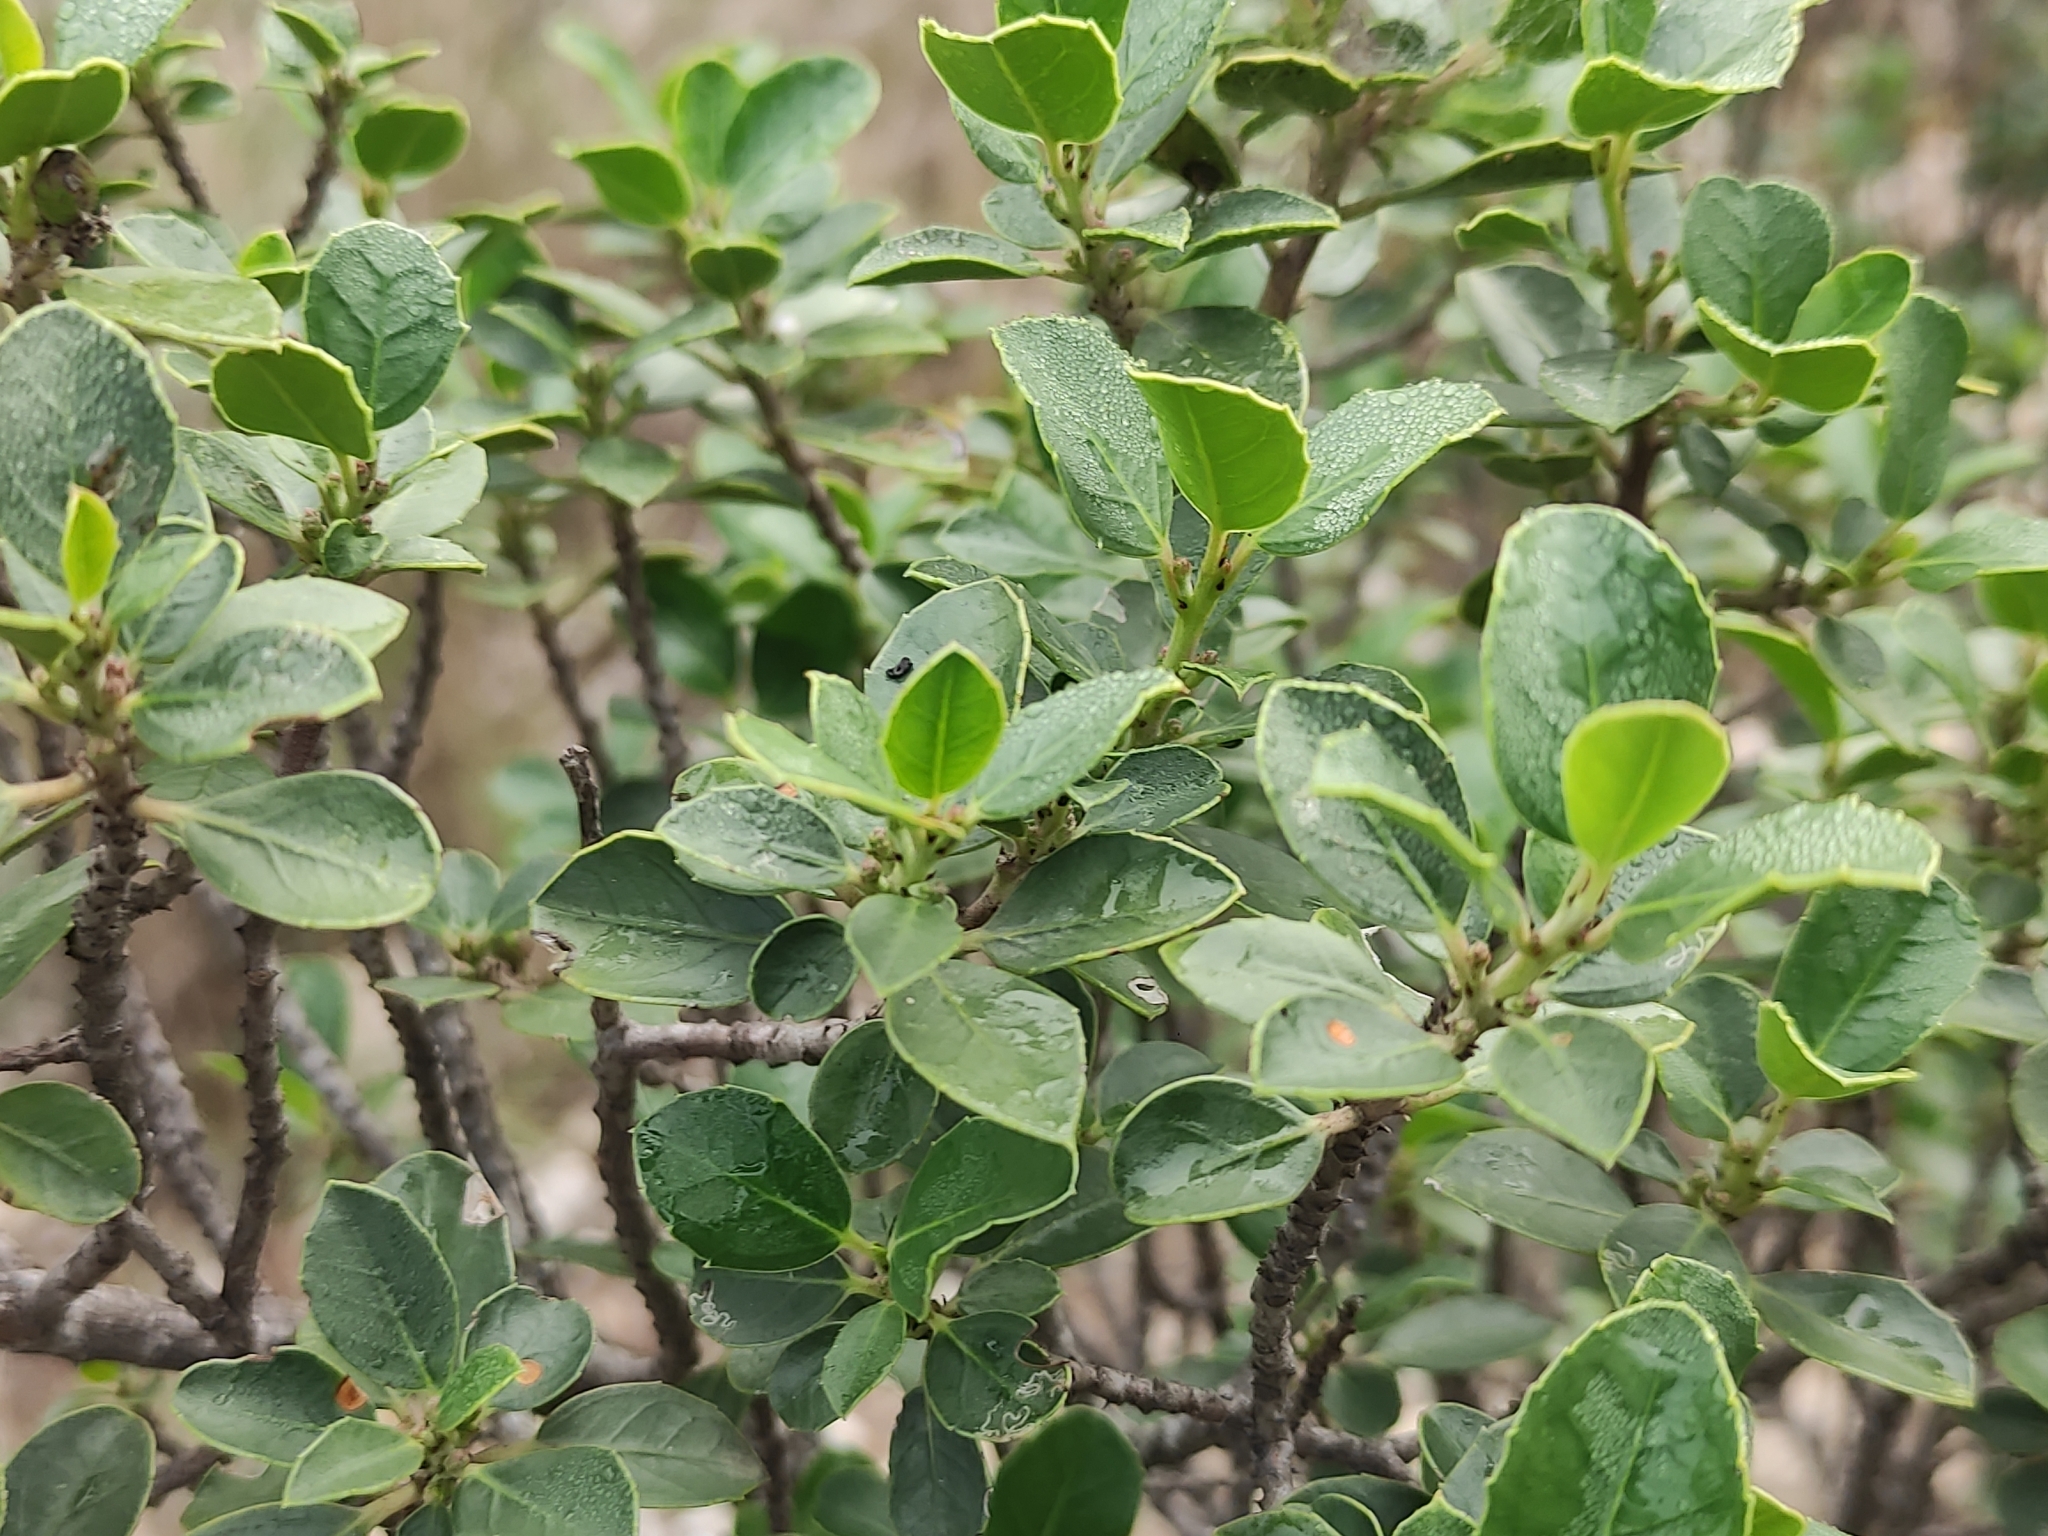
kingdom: Plantae
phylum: Tracheophyta
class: Magnoliopsida
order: Rosales
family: Rhamnaceae
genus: Rhamnus
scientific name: Rhamnus alaternus
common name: Mediterranean buckthorn
